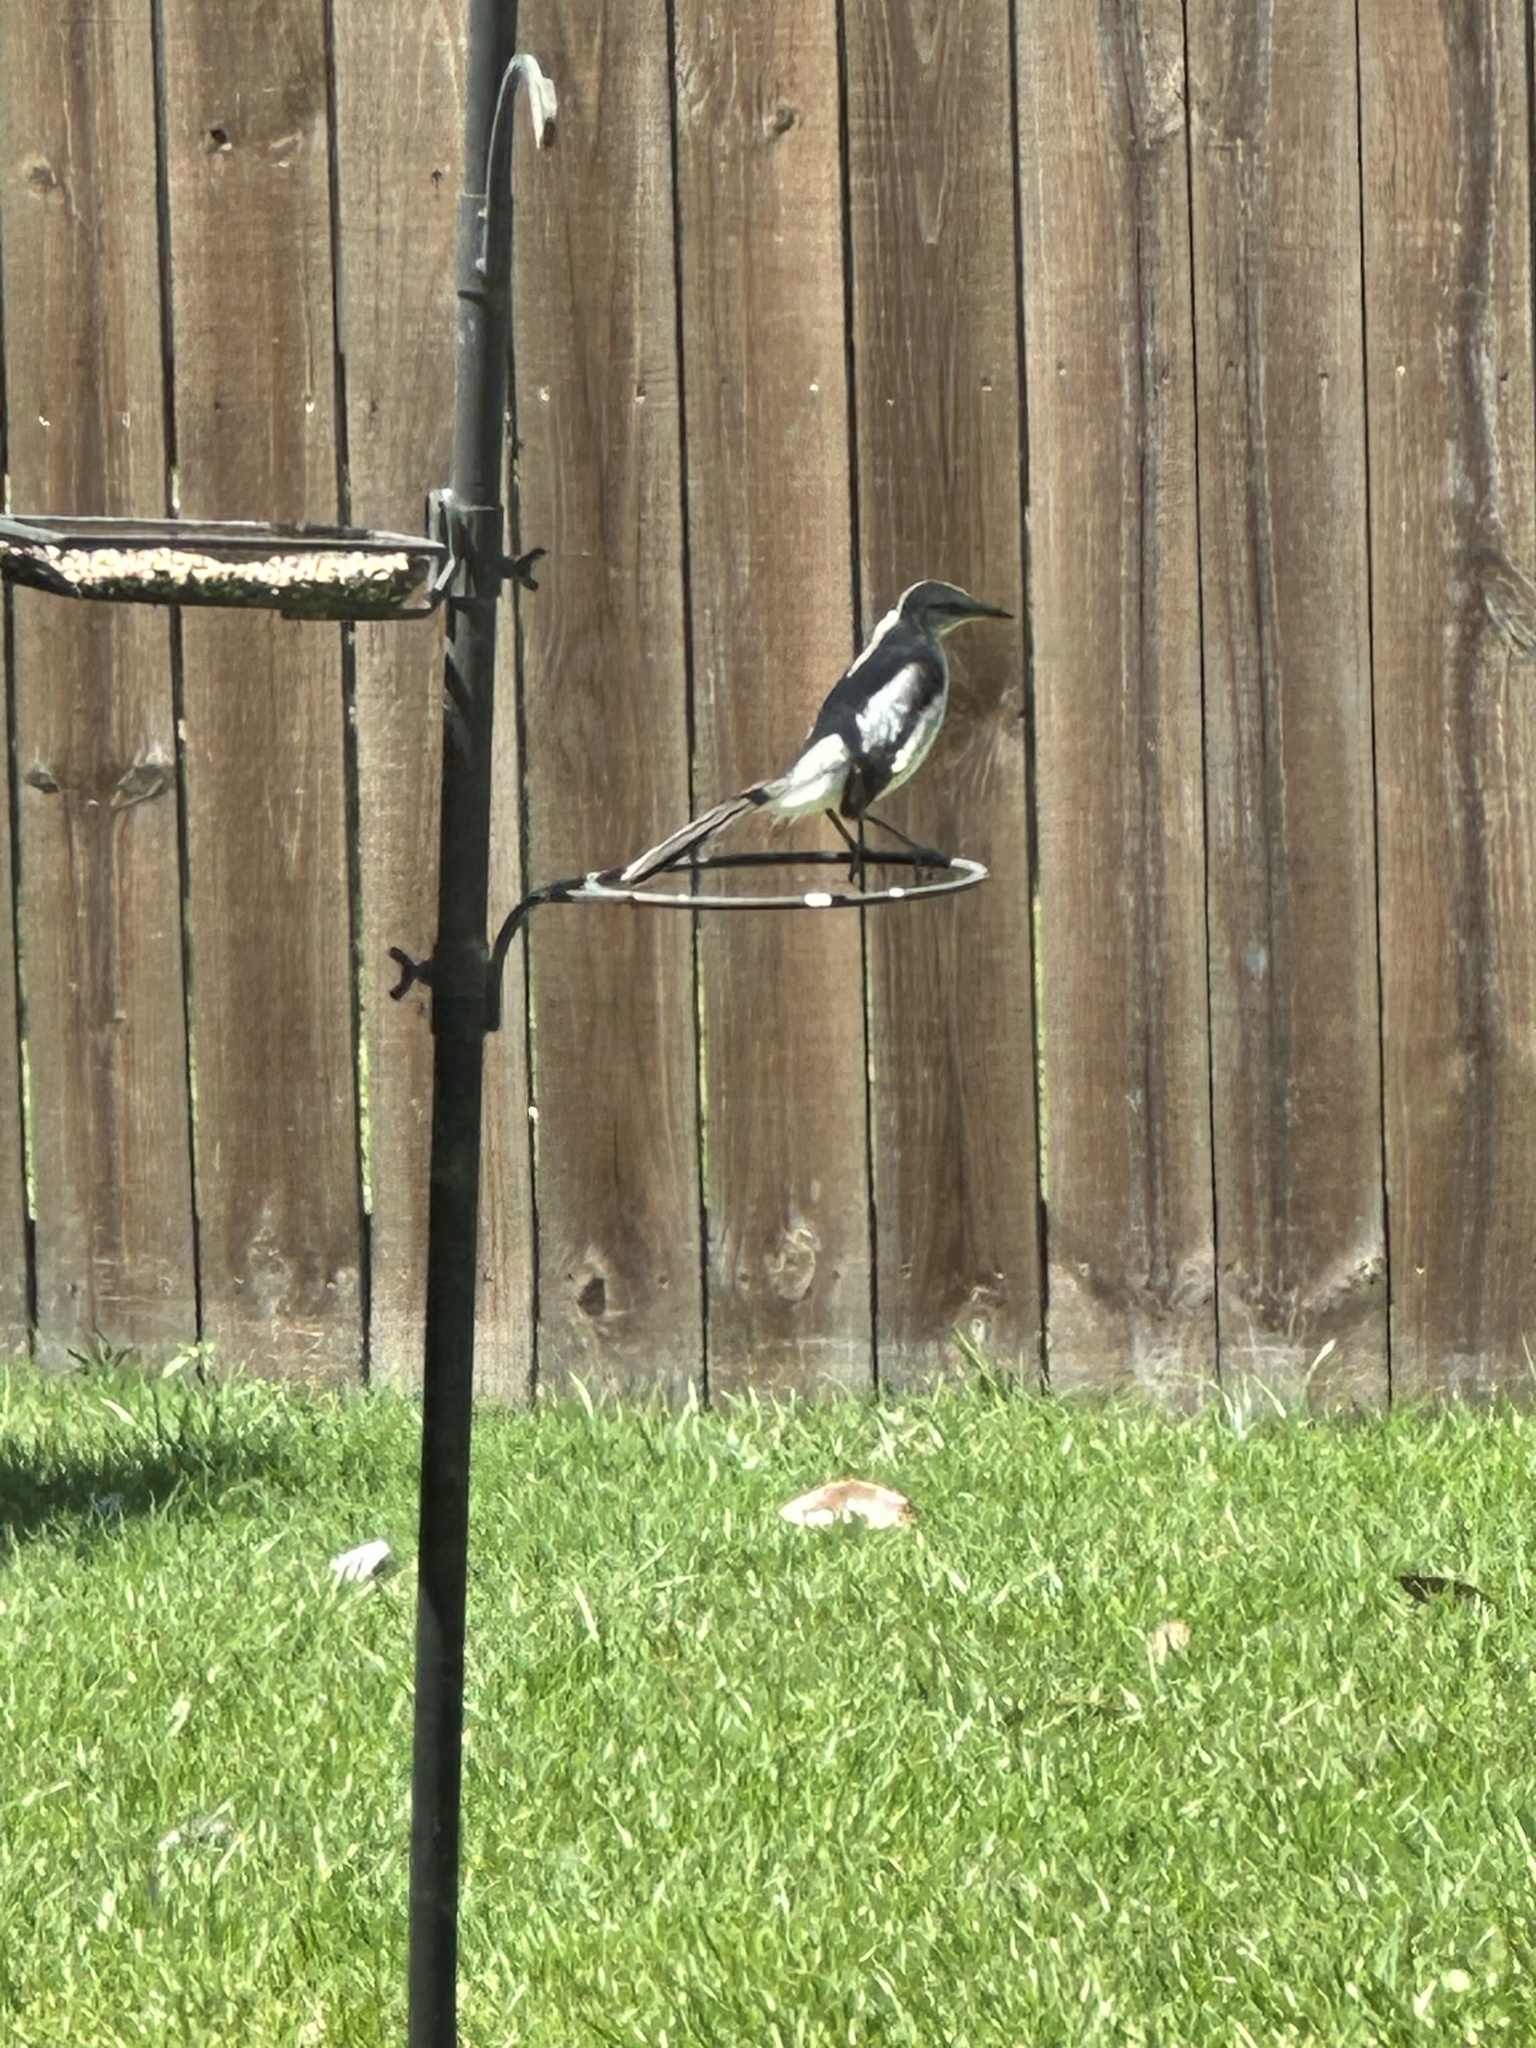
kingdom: Animalia
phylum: Chordata
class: Aves
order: Passeriformes
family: Mimidae
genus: Mimus
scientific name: Mimus polyglottos
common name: Northern mockingbird
